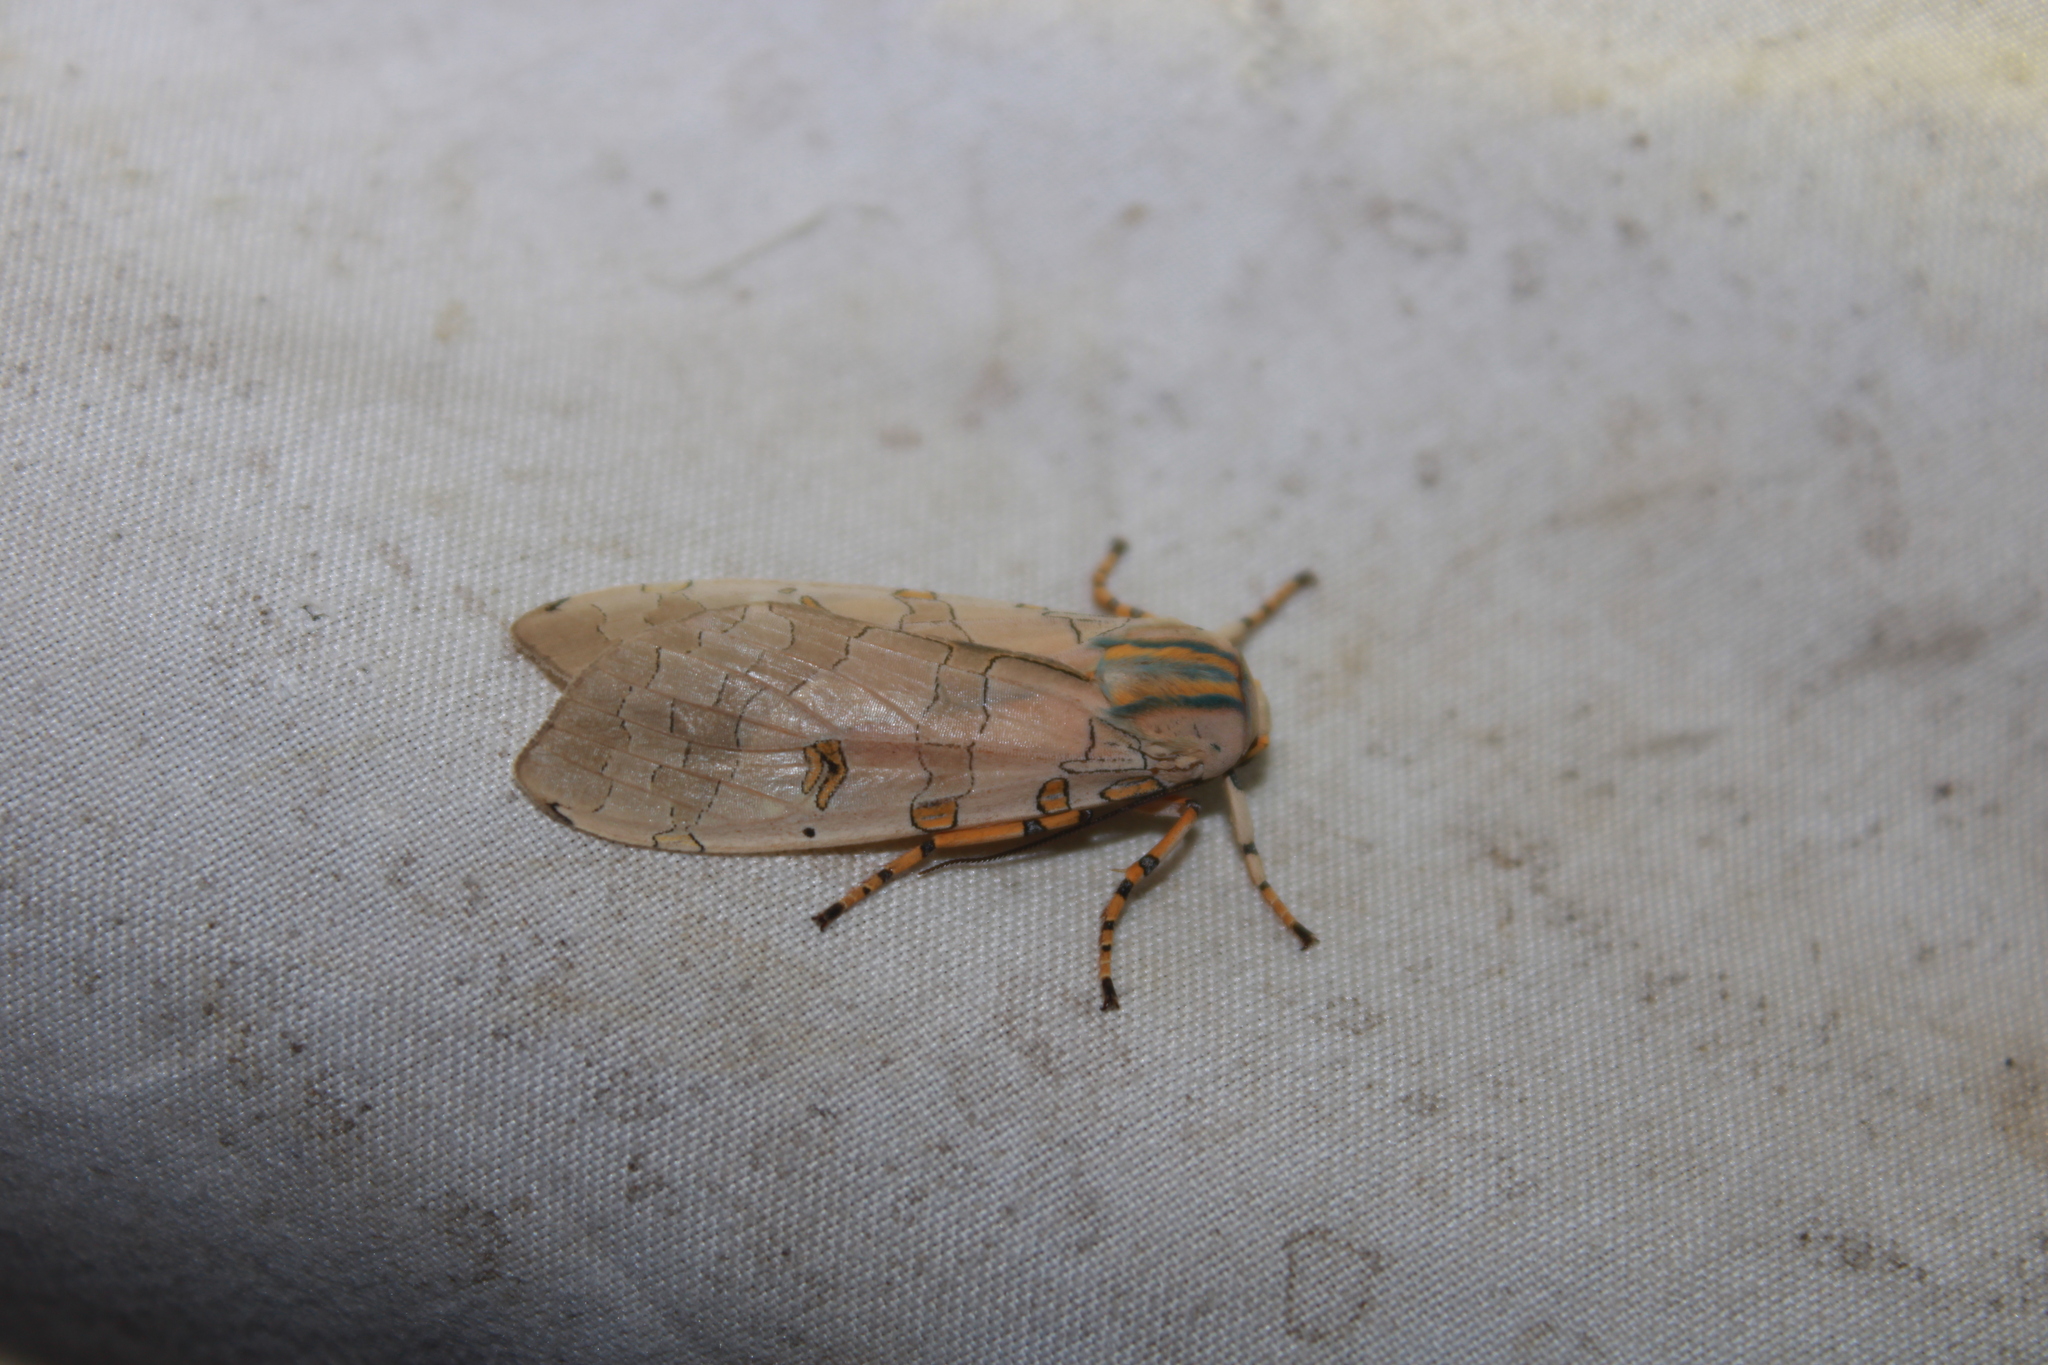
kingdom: Animalia
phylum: Arthropoda
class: Insecta
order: Lepidoptera
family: Erebidae
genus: Halysidota
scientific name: Halysidota cinctipes
